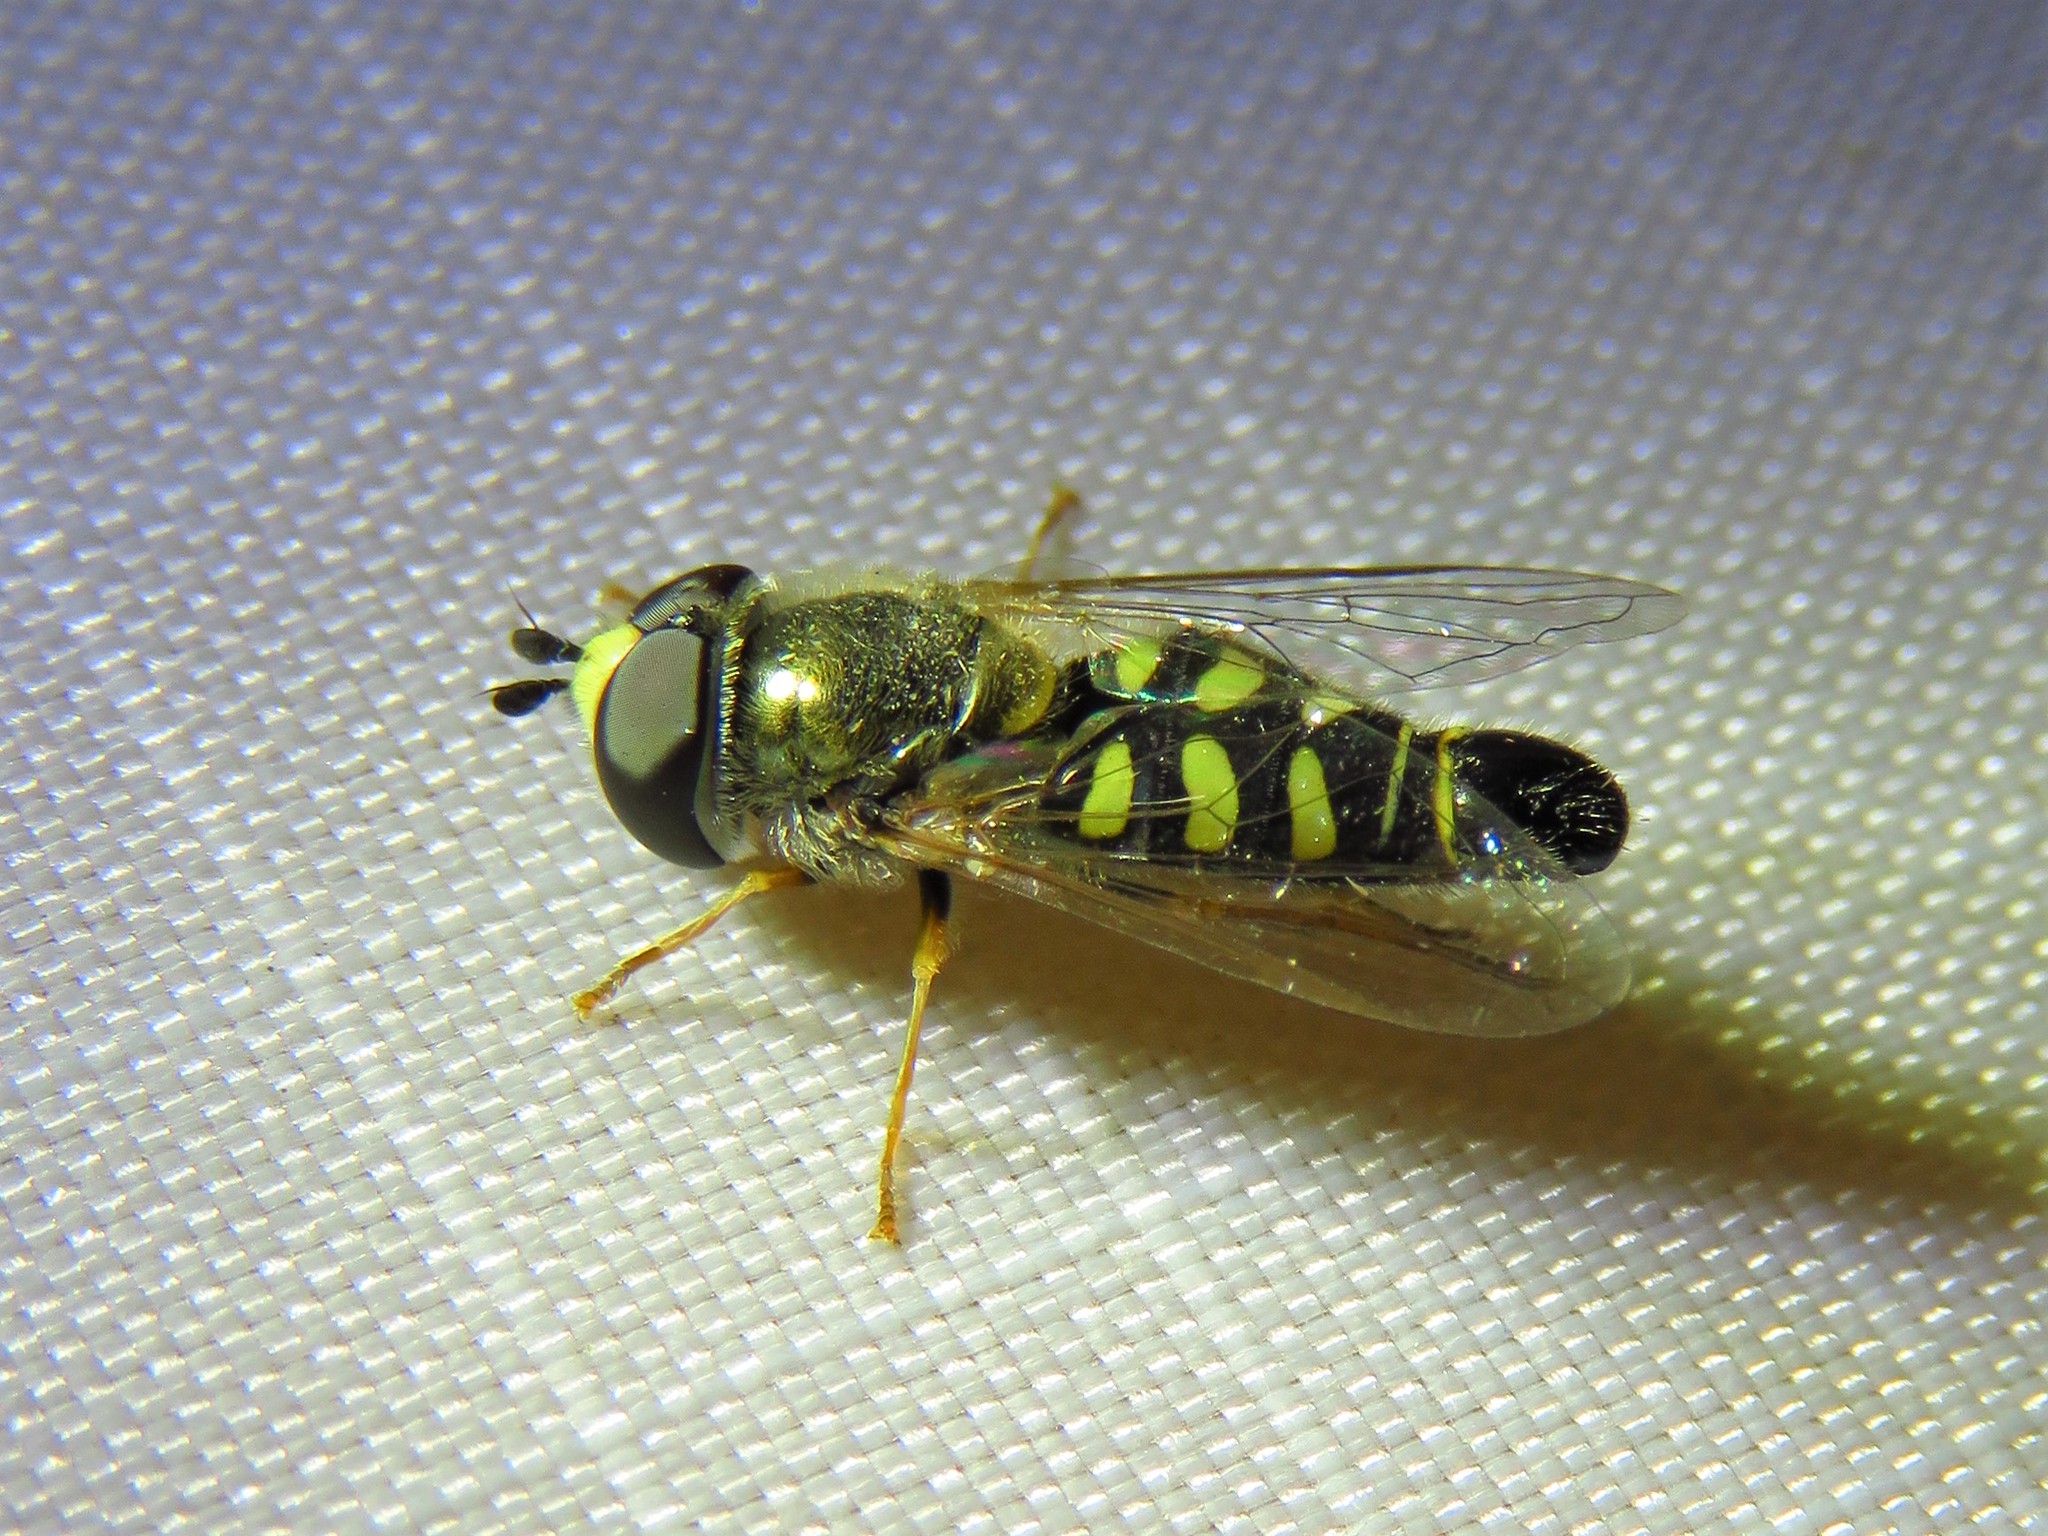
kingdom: Animalia
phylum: Arthropoda
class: Insecta
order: Diptera
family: Syrphidae
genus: Eupeodes
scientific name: Eupeodes volucris
